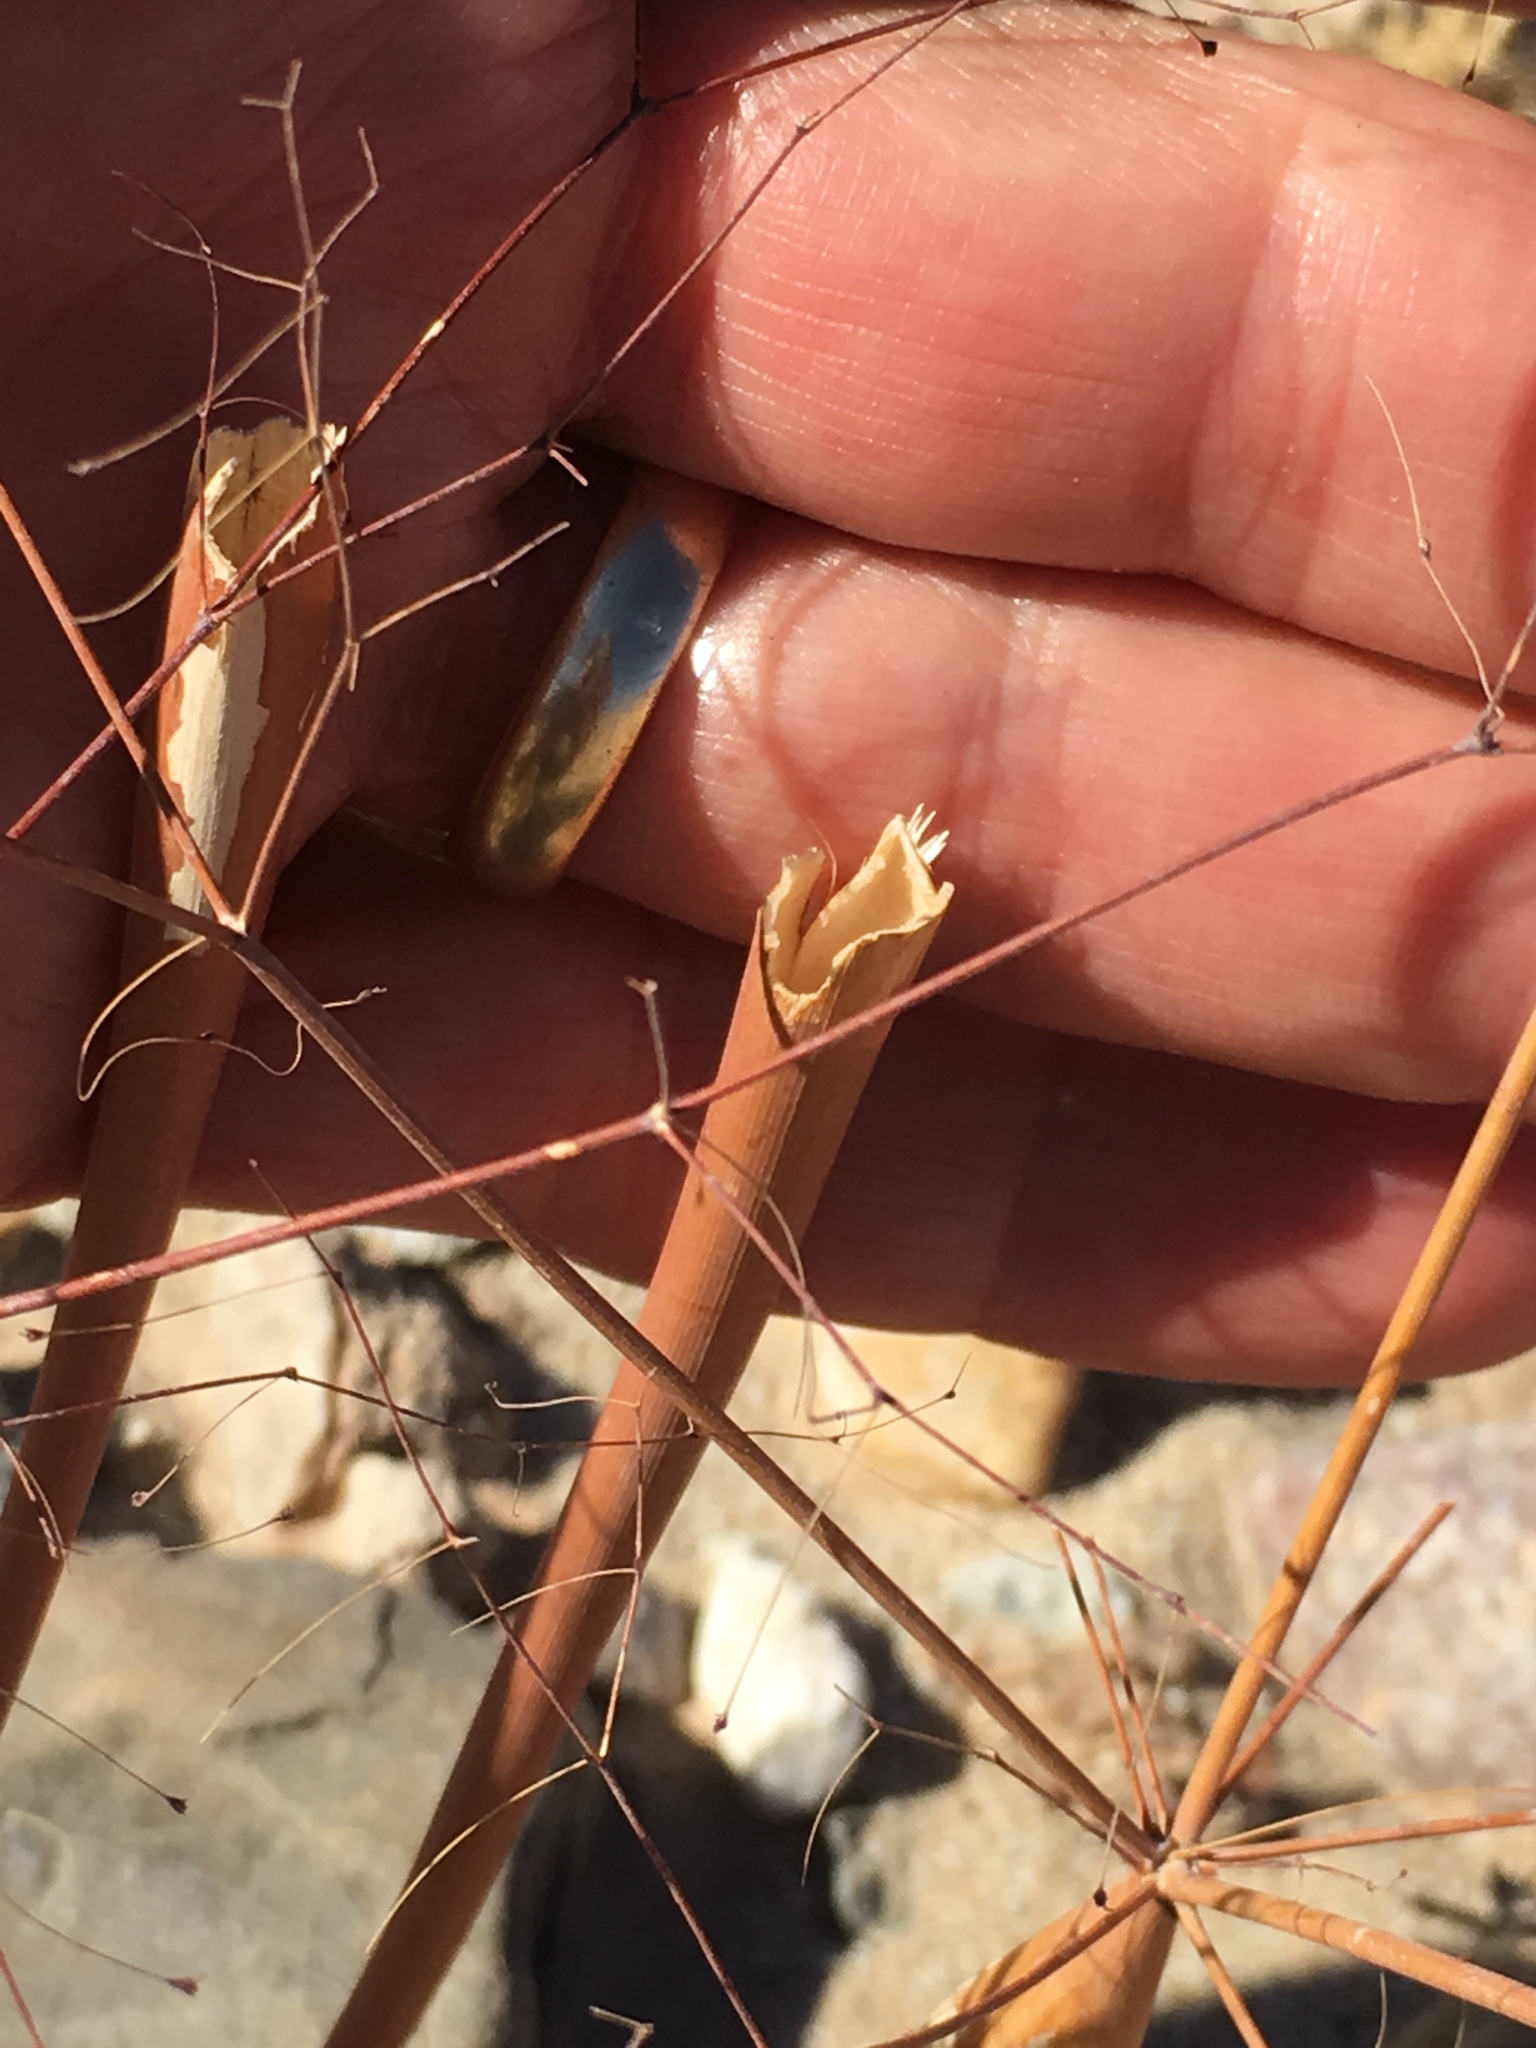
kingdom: Plantae
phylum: Tracheophyta
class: Magnoliopsida
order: Caryophyllales
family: Polygonaceae
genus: Eriogonum
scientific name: Eriogonum trichopes
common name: Little desert trumpet
